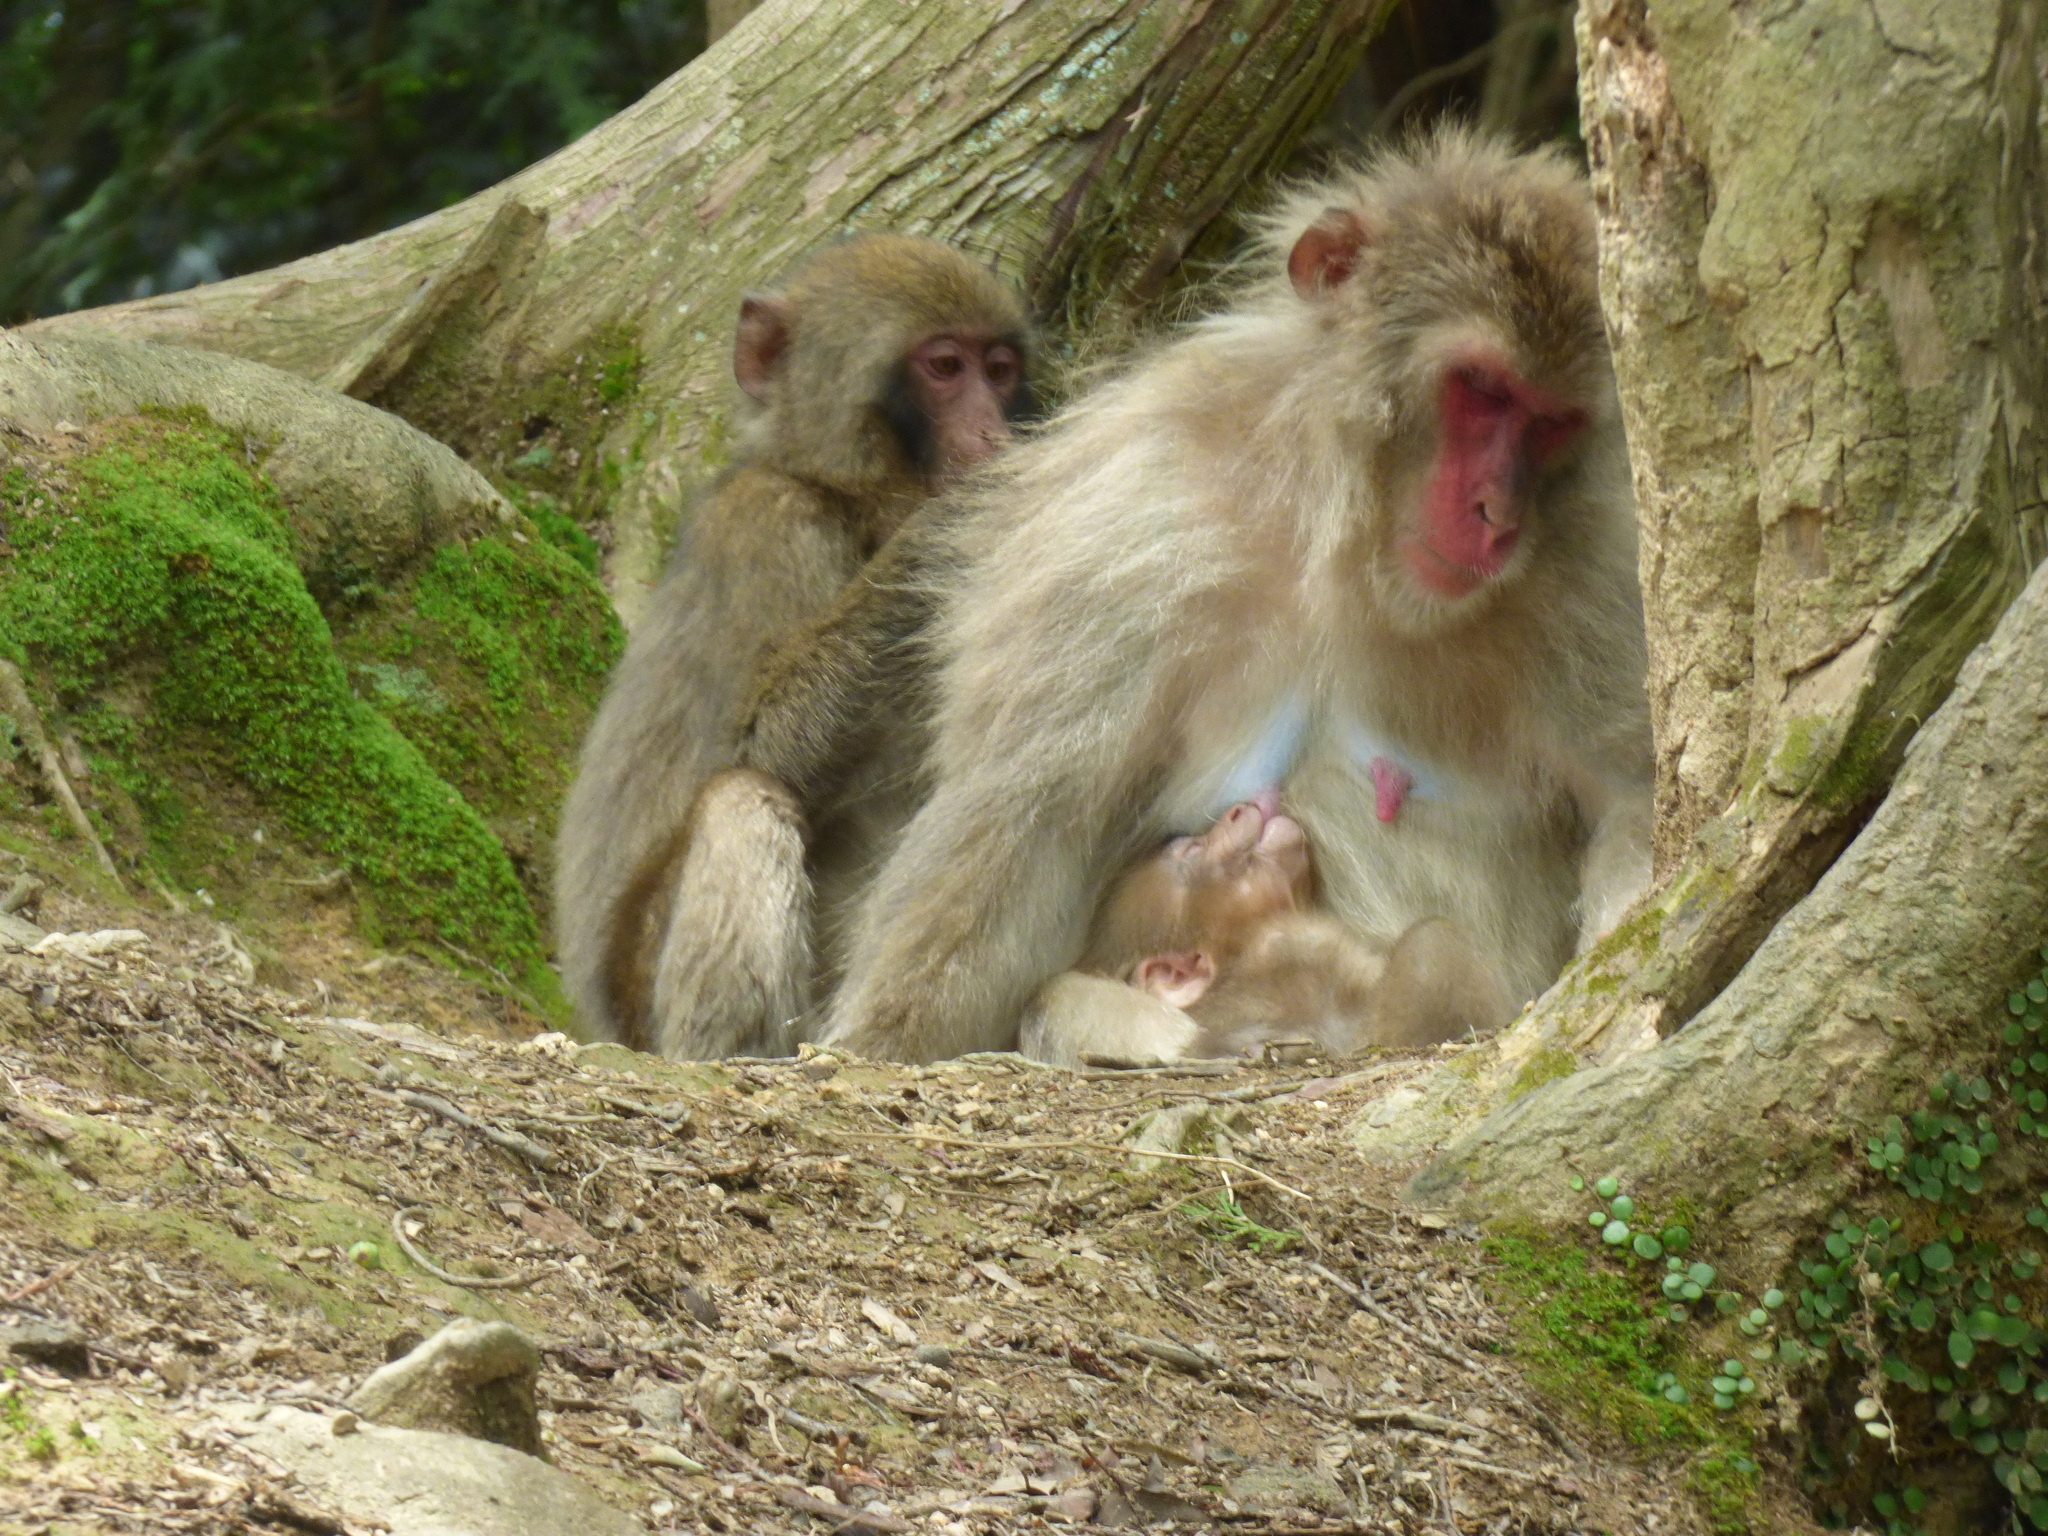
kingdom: Animalia
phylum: Chordata
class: Mammalia
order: Primates
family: Cercopithecidae
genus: Macaca
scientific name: Macaca fuscata
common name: Japanese macaque
